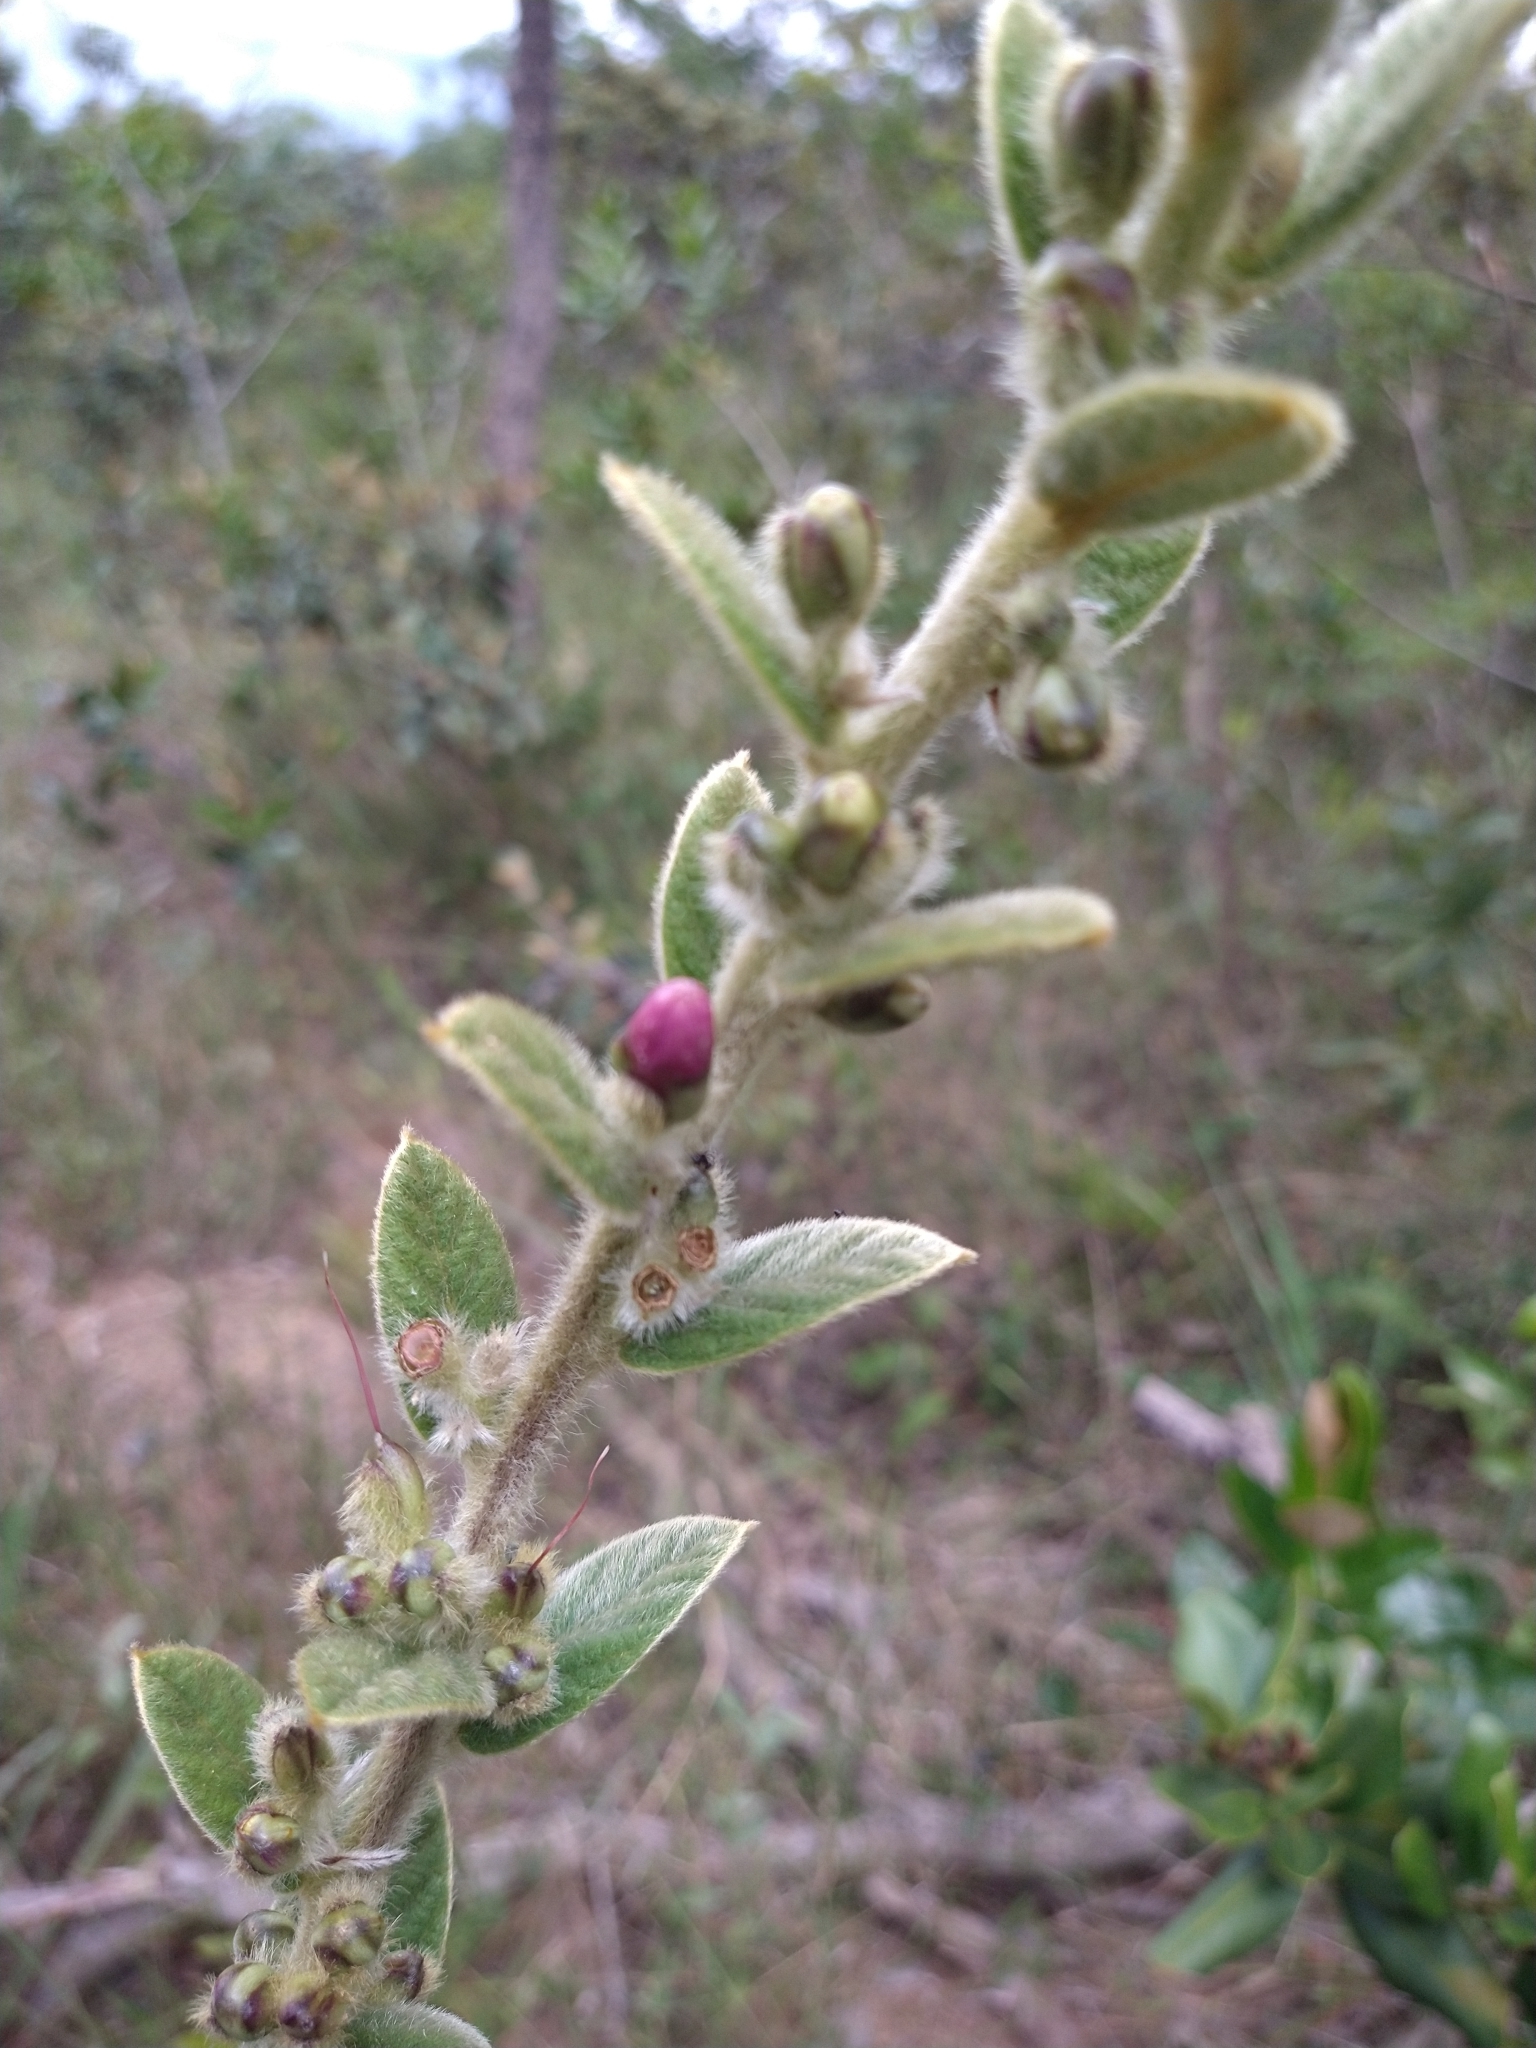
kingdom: Plantae
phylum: Tracheophyta
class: Magnoliopsida
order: Solanales
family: Convolvulaceae
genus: Ipomoea
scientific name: Ipomoea argentea
